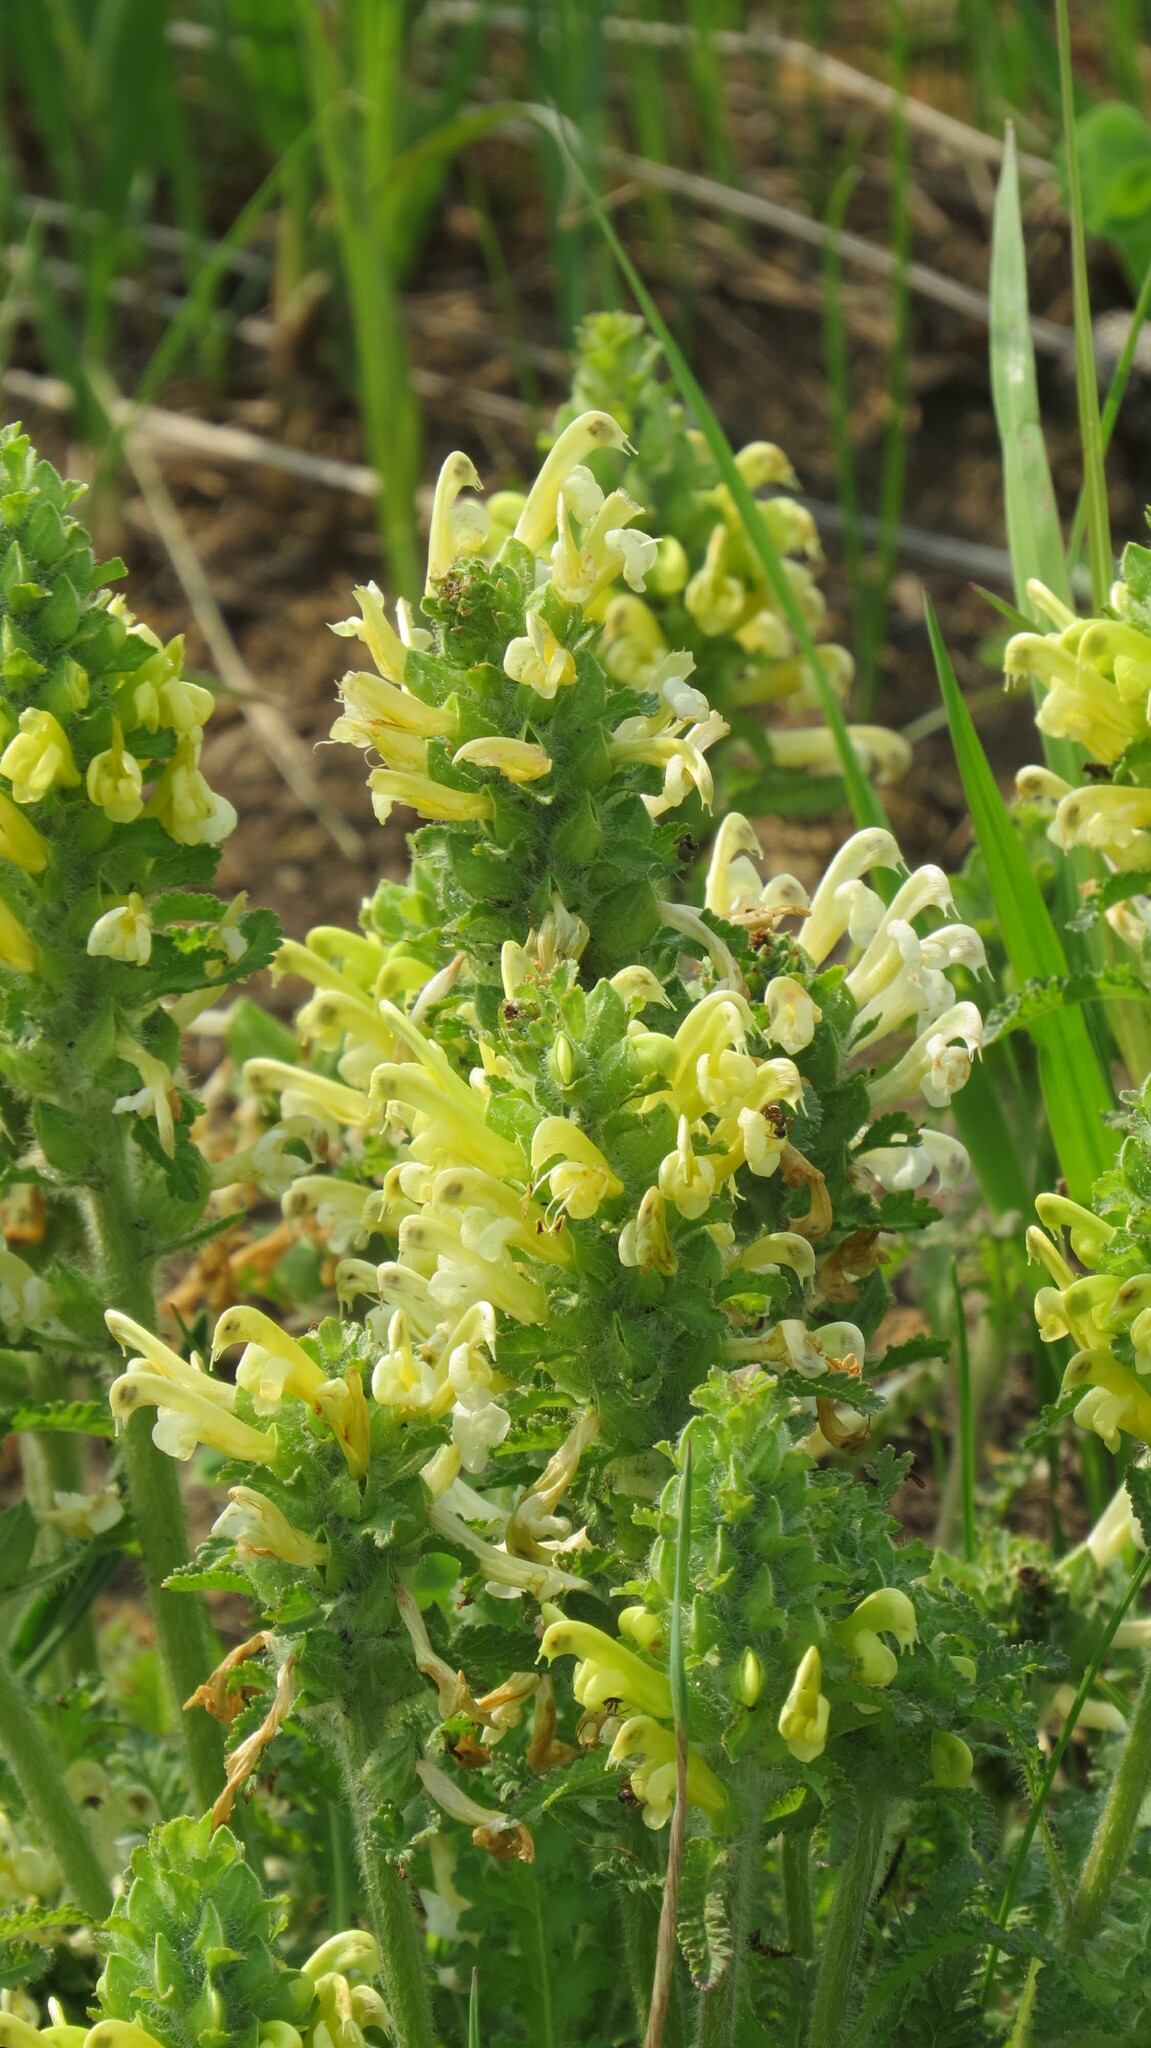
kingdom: Plantae
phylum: Tracheophyta
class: Magnoliopsida
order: Lamiales
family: Orobanchaceae
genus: Pedicularis
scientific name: Pedicularis canadensis
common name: Early lousewort
